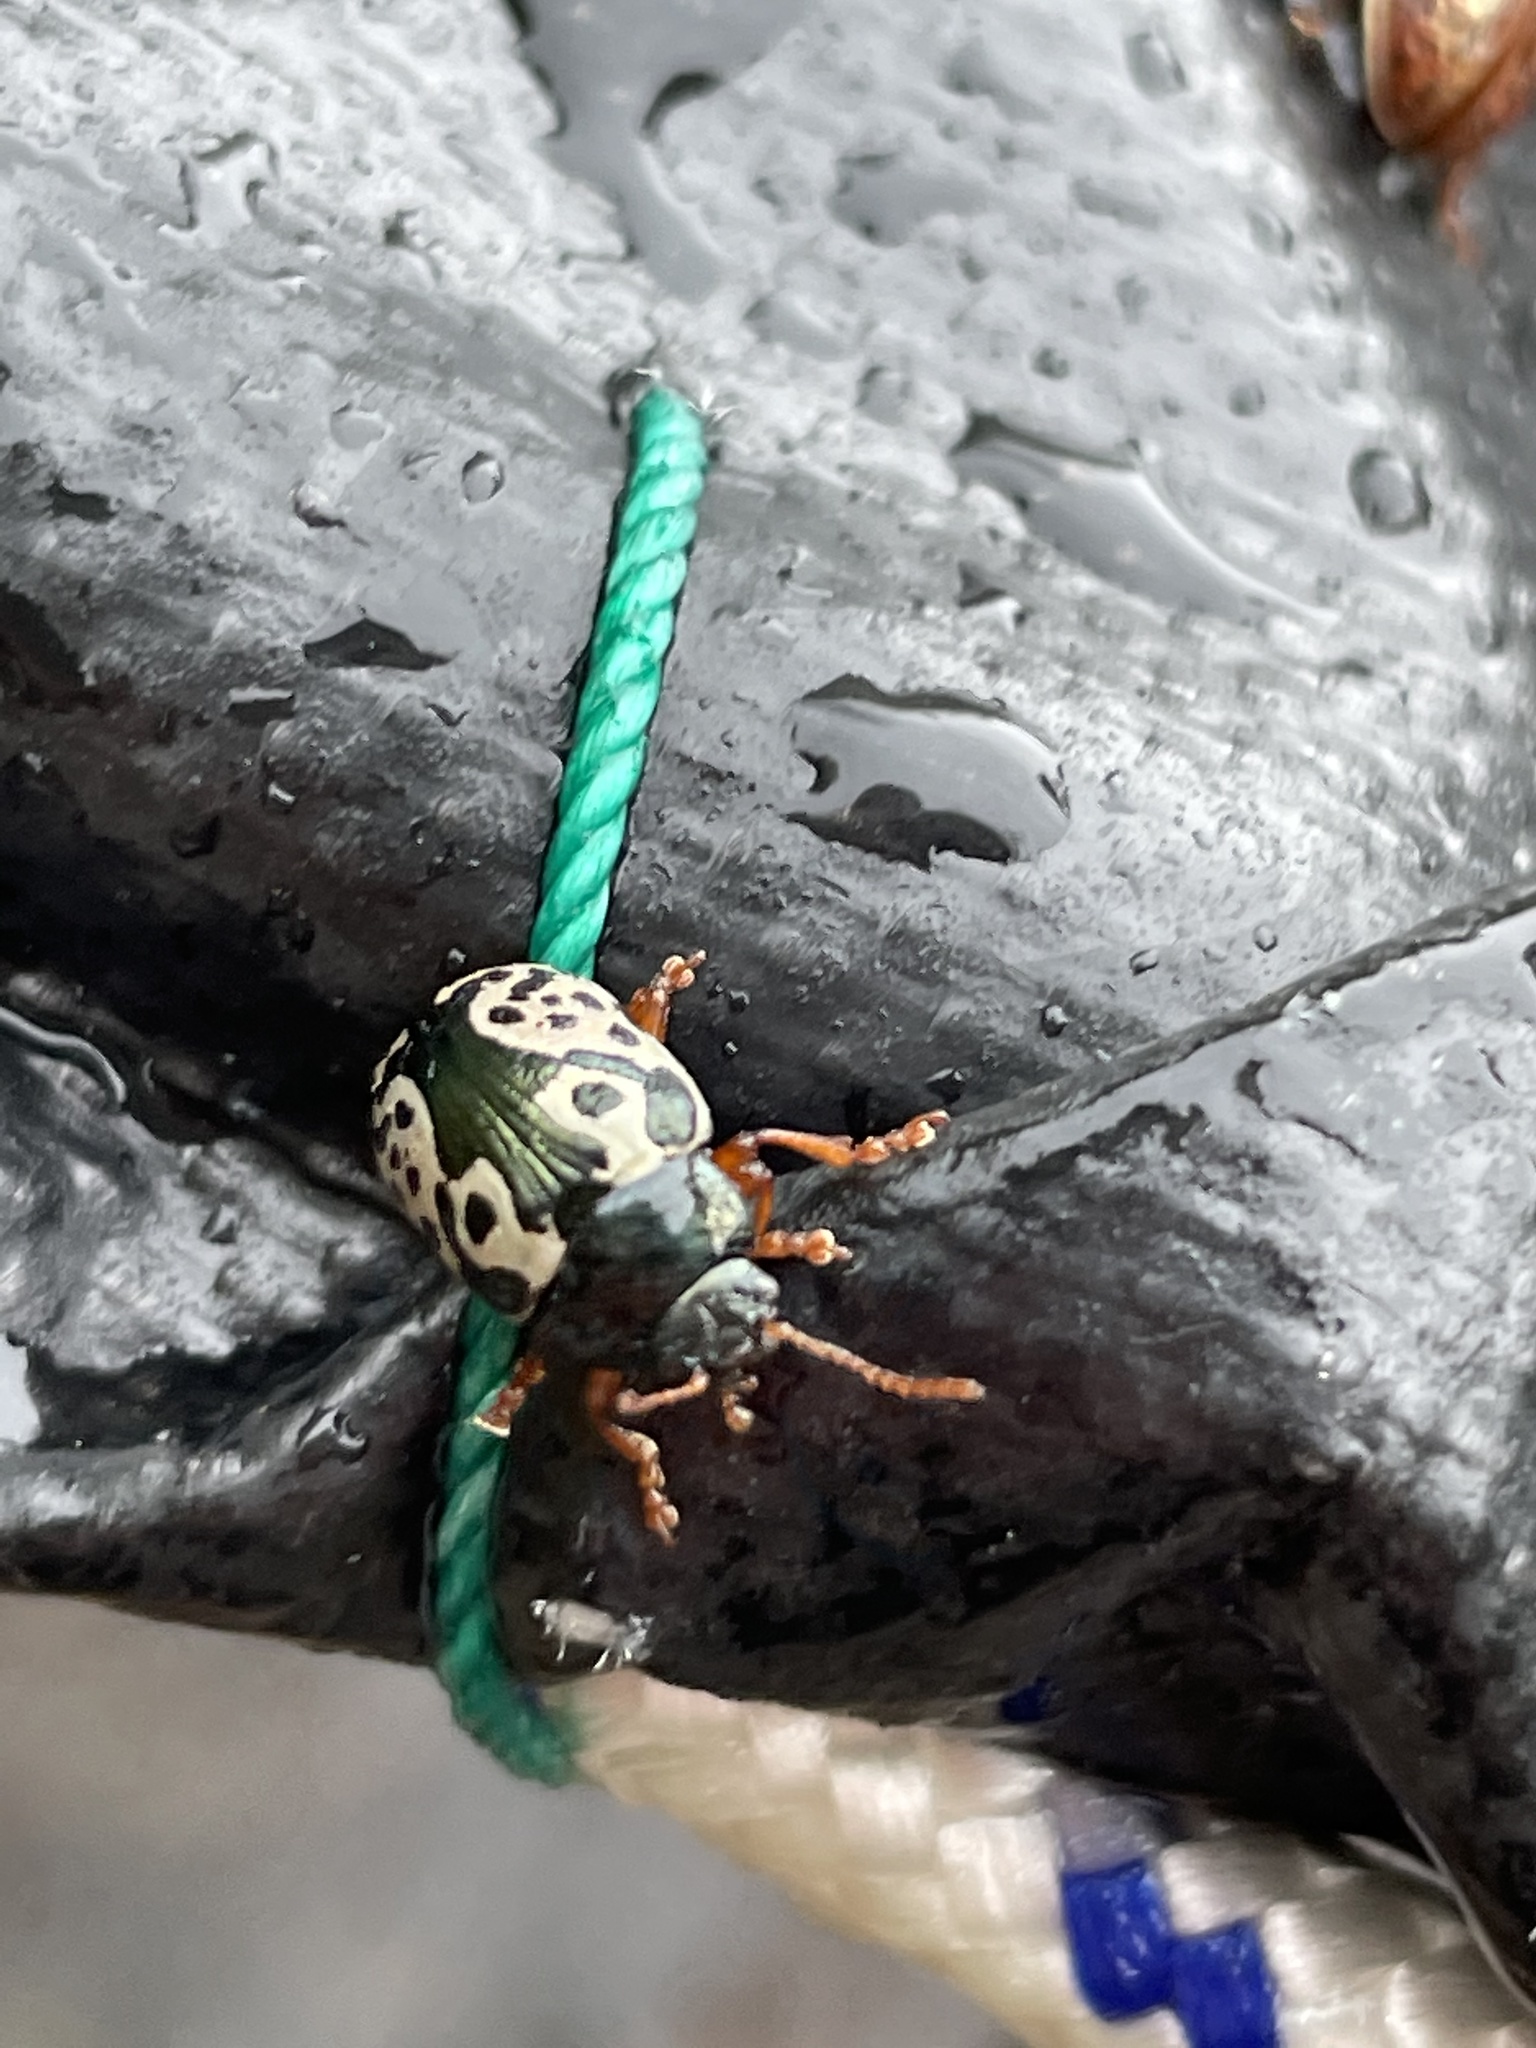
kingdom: Animalia
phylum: Arthropoda
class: Insecta
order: Coleoptera
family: Chrysomelidae
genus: Calligrapha
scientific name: Calligrapha confluens
